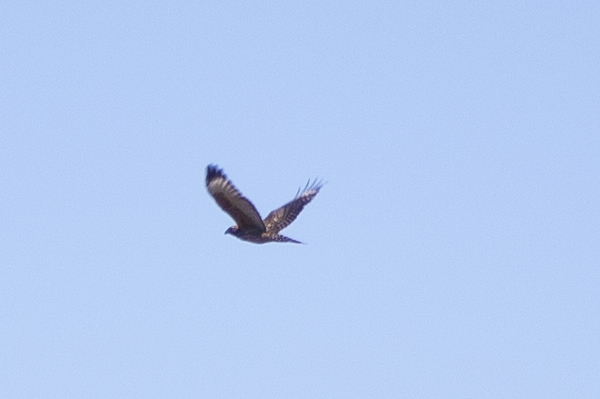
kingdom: Animalia
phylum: Chordata
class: Aves
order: Accipitriformes
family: Accipitridae
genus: Buteo
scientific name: Buteo lineatus
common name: Red-shouldered hawk
